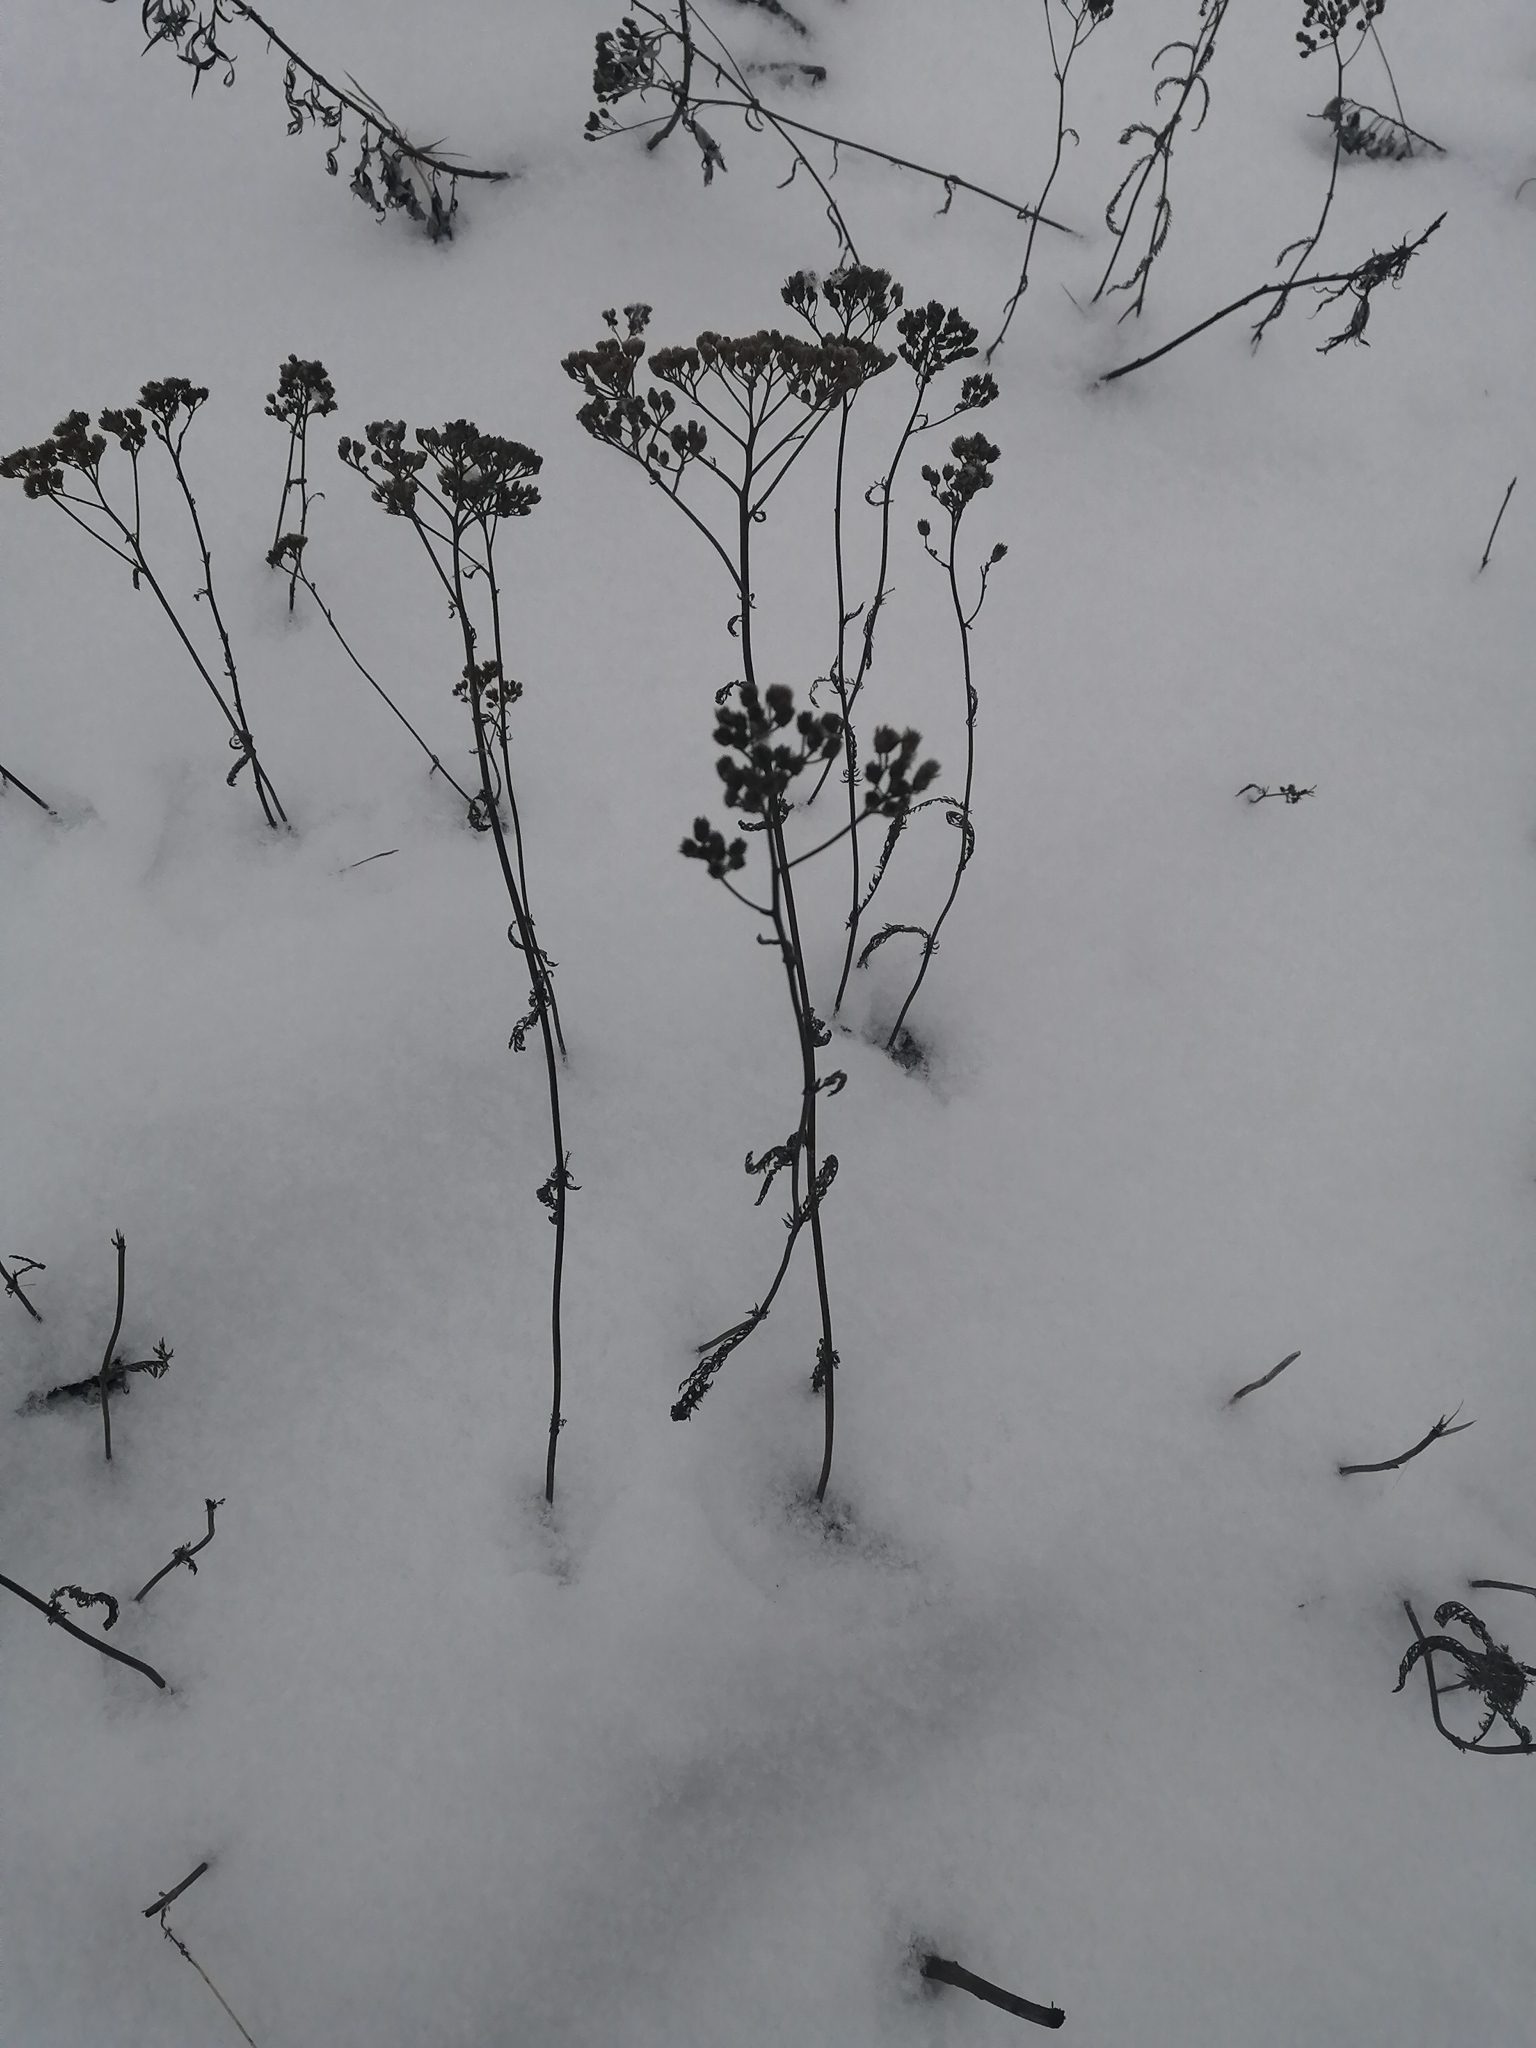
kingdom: Plantae
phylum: Tracheophyta
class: Magnoliopsida
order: Asterales
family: Asteraceae
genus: Achillea
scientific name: Achillea millefolium
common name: Yarrow
